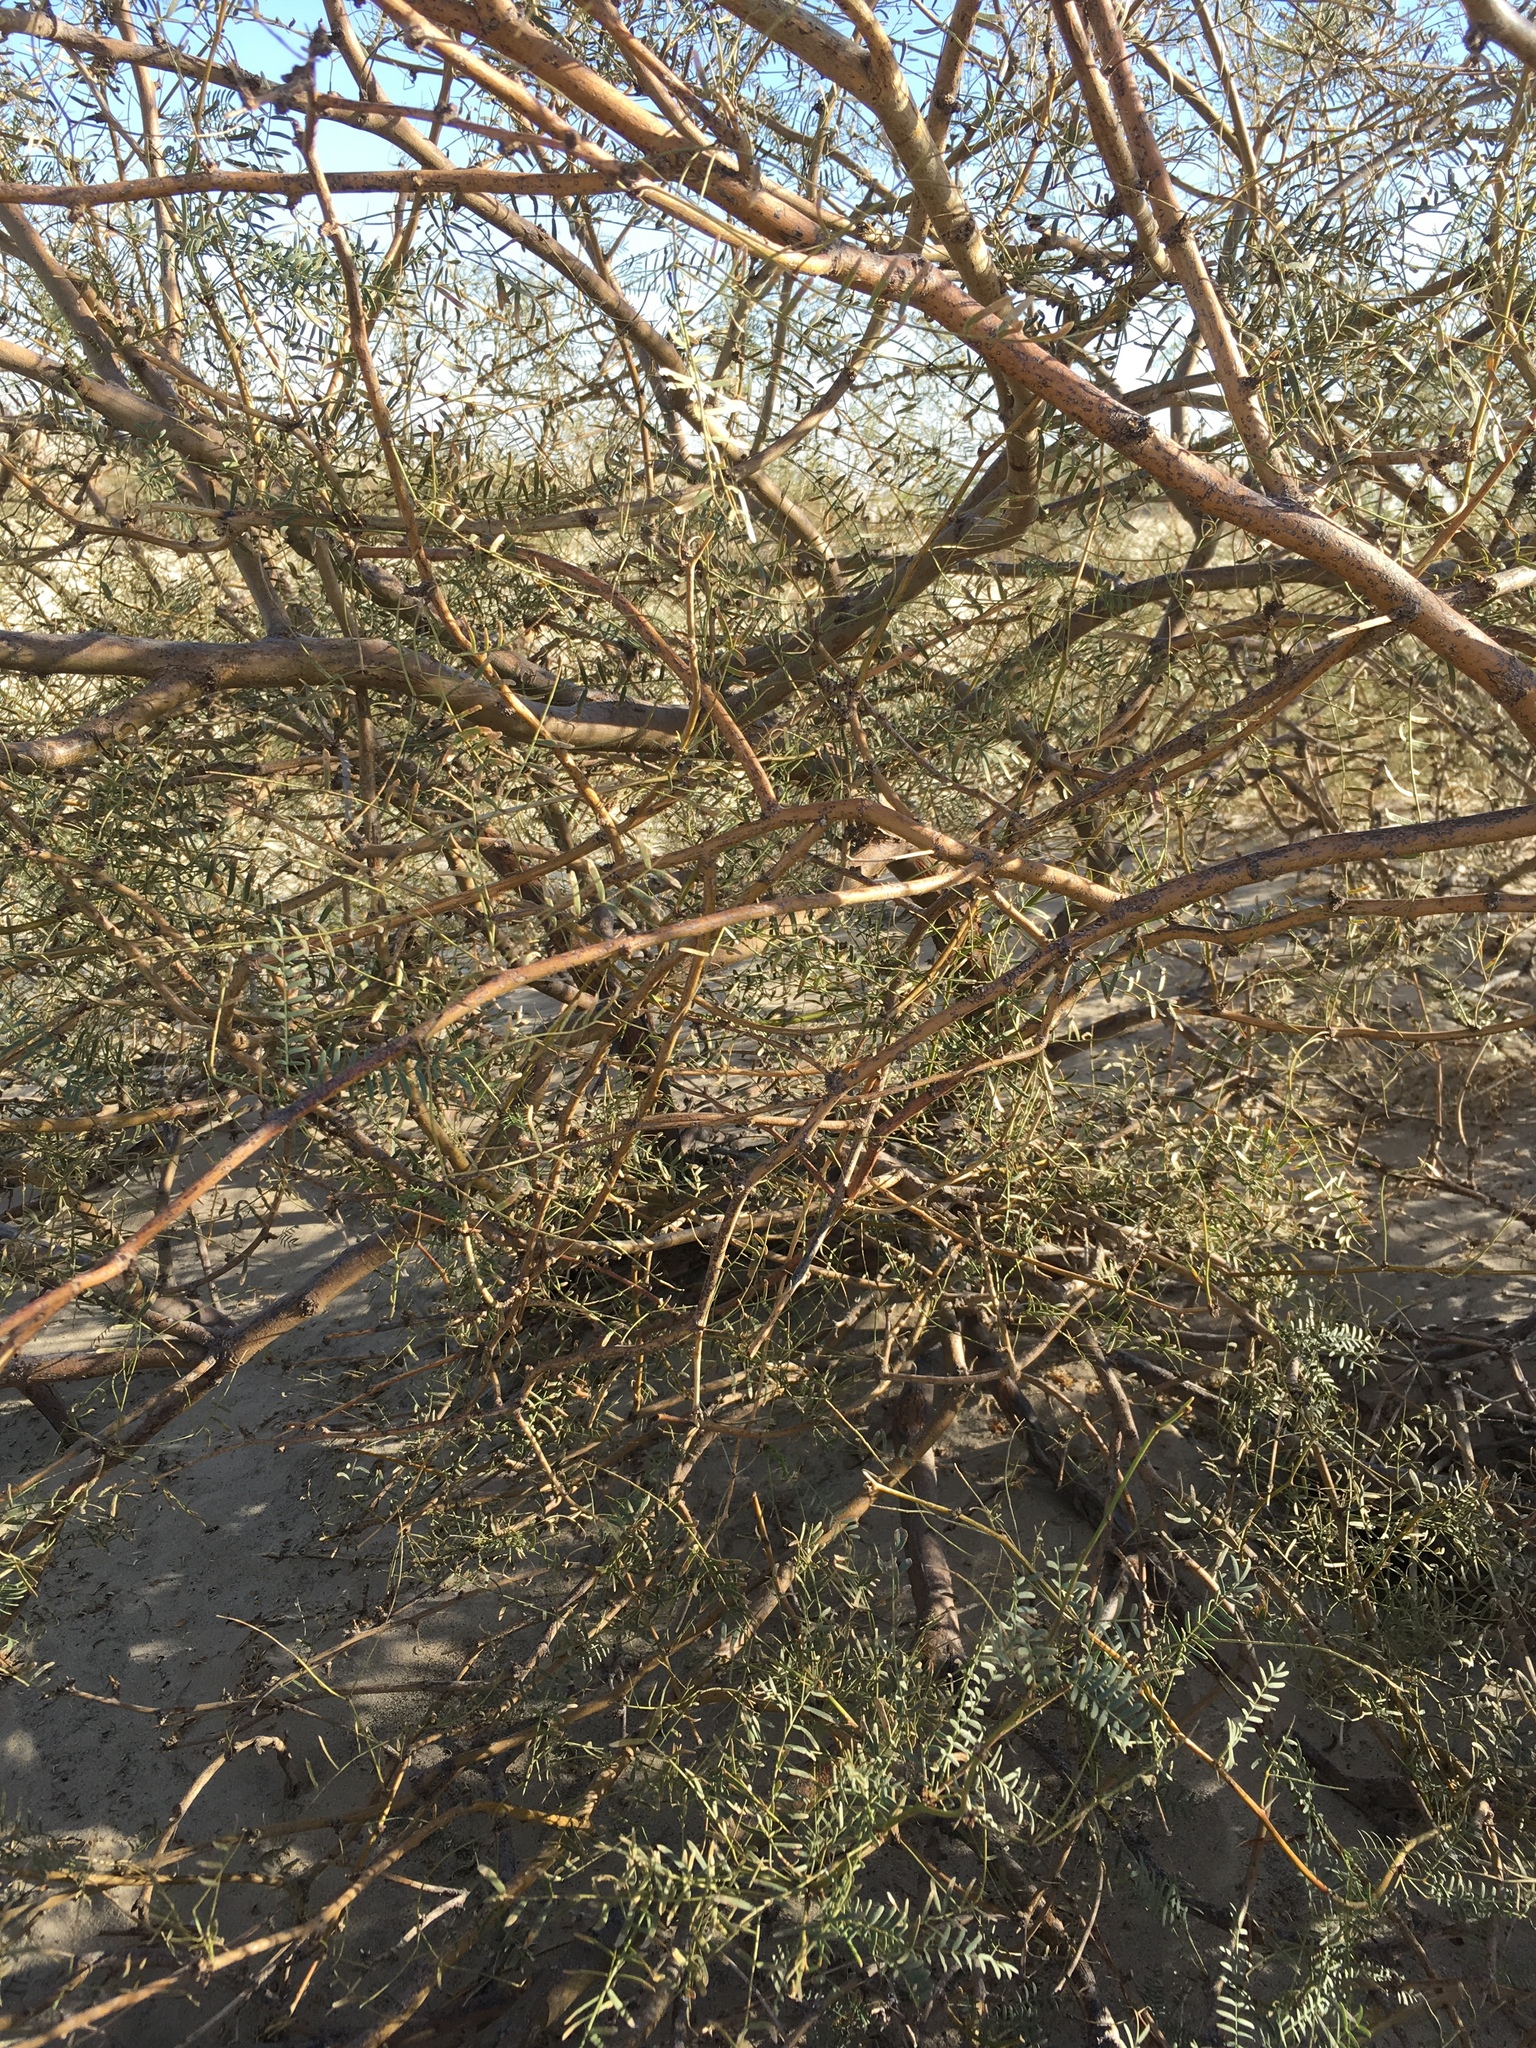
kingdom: Plantae
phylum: Tracheophyta
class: Magnoliopsida
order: Fabales
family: Fabaceae
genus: Prosopis
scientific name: Prosopis pubescens
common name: Screw-bean
